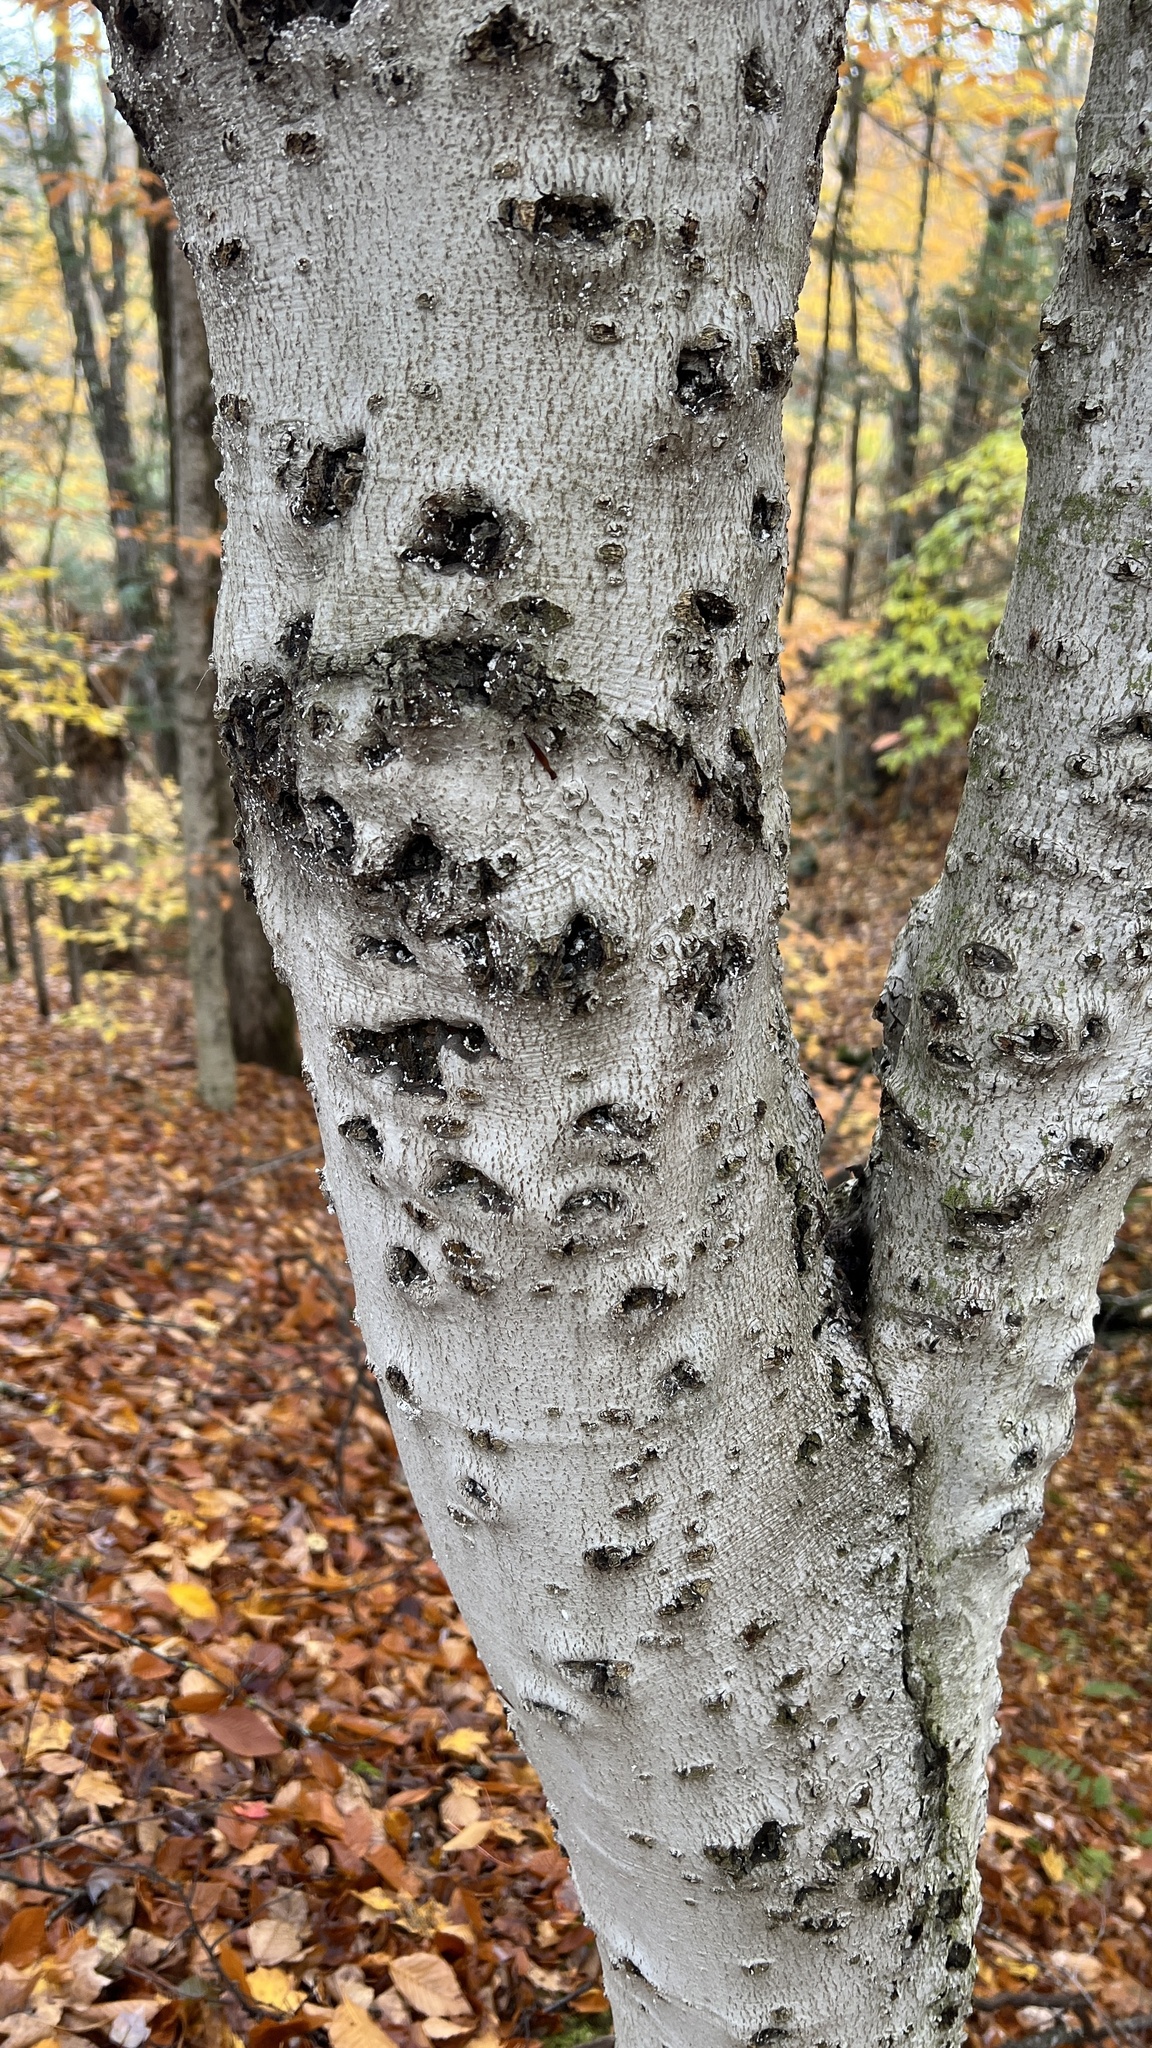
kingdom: Animalia
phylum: Arthropoda
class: Insecta
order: Hemiptera
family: Eriococcidae
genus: Cryptococcus
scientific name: Cryptococcus fagisuga
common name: Beech scale
